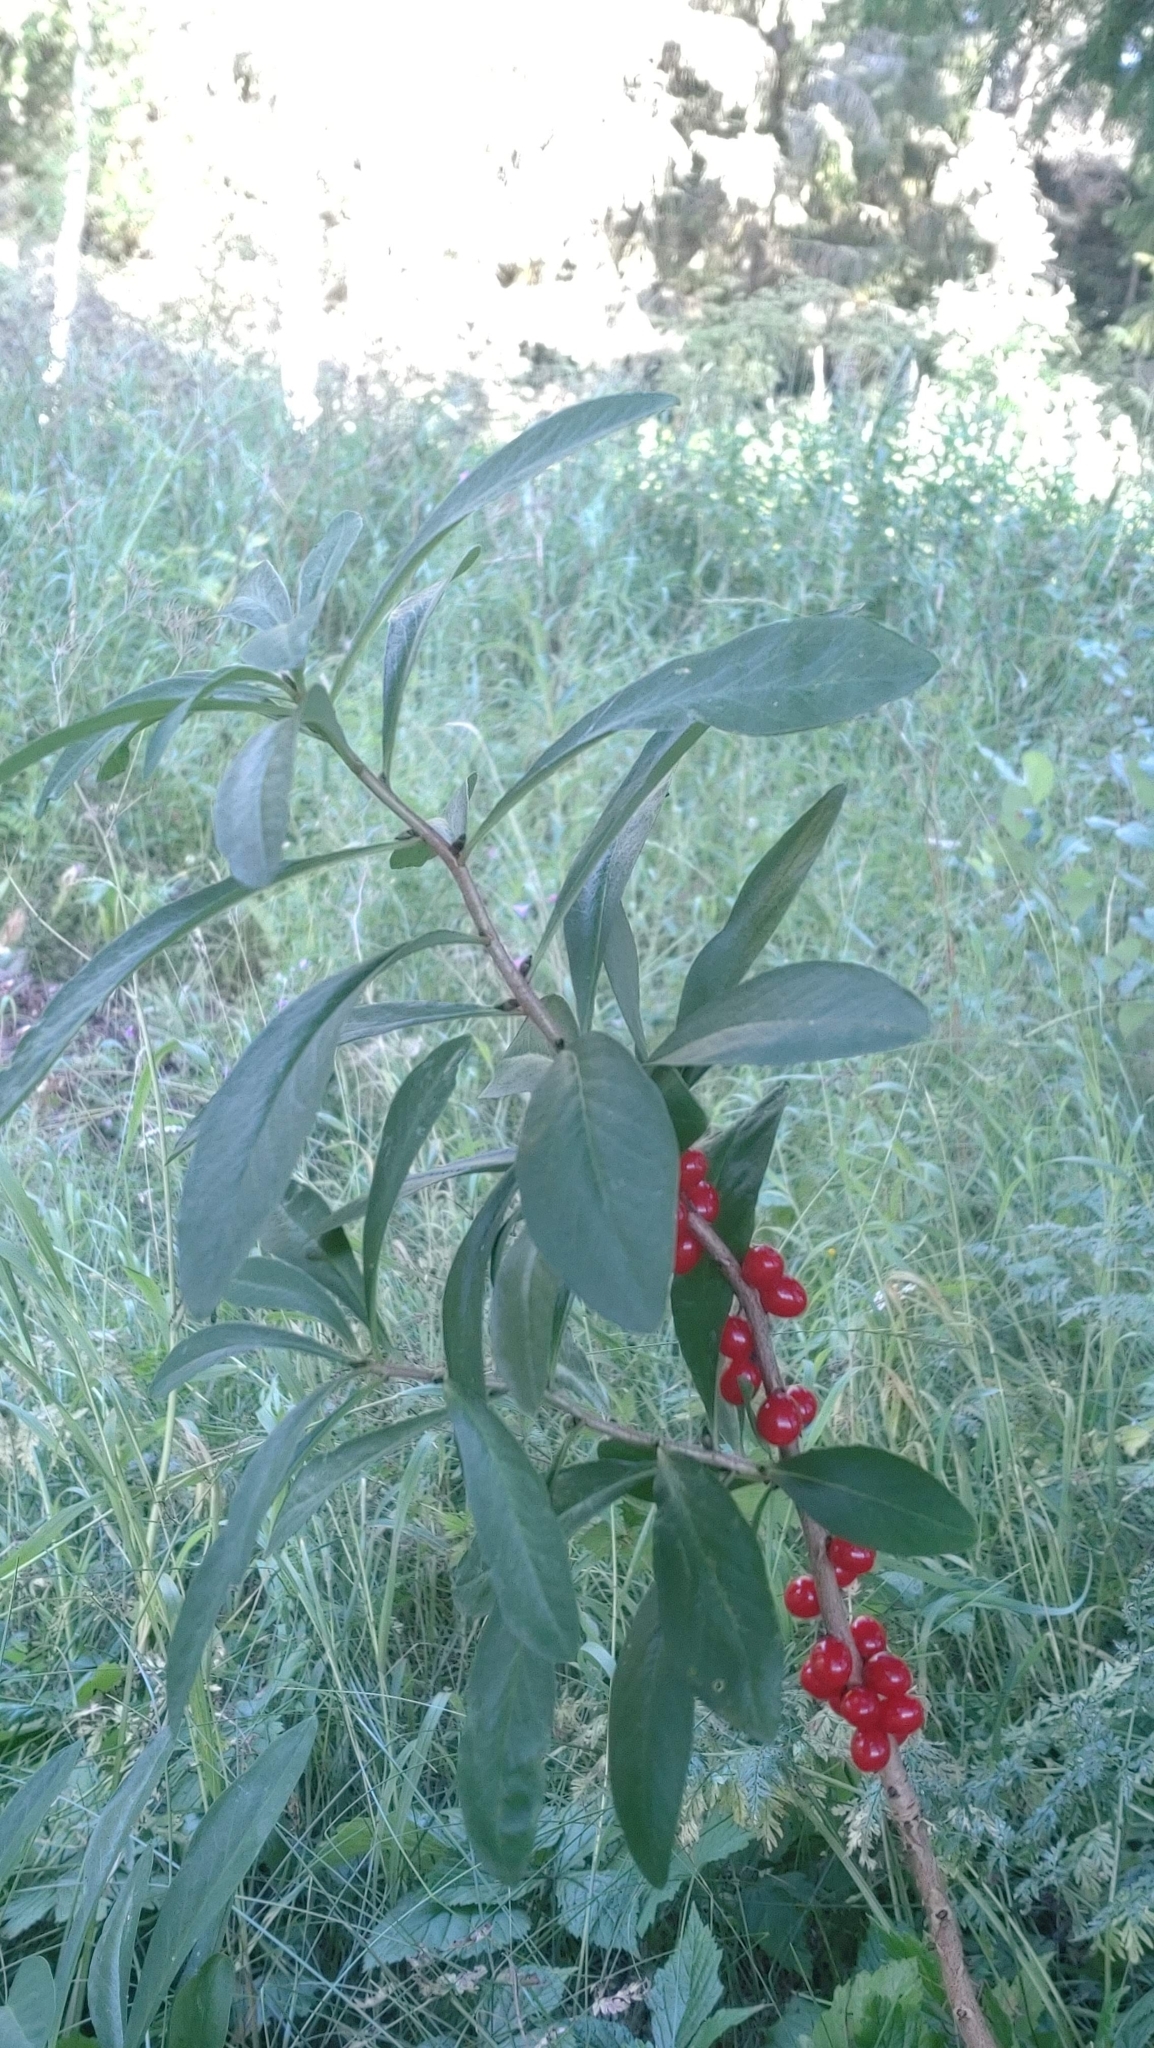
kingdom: Plantae
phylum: Tracheophyta
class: Magnoliopsida
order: Malvales
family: Thymelaeaceae
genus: Daphne
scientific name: Daphne mezereum
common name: Mezereon
